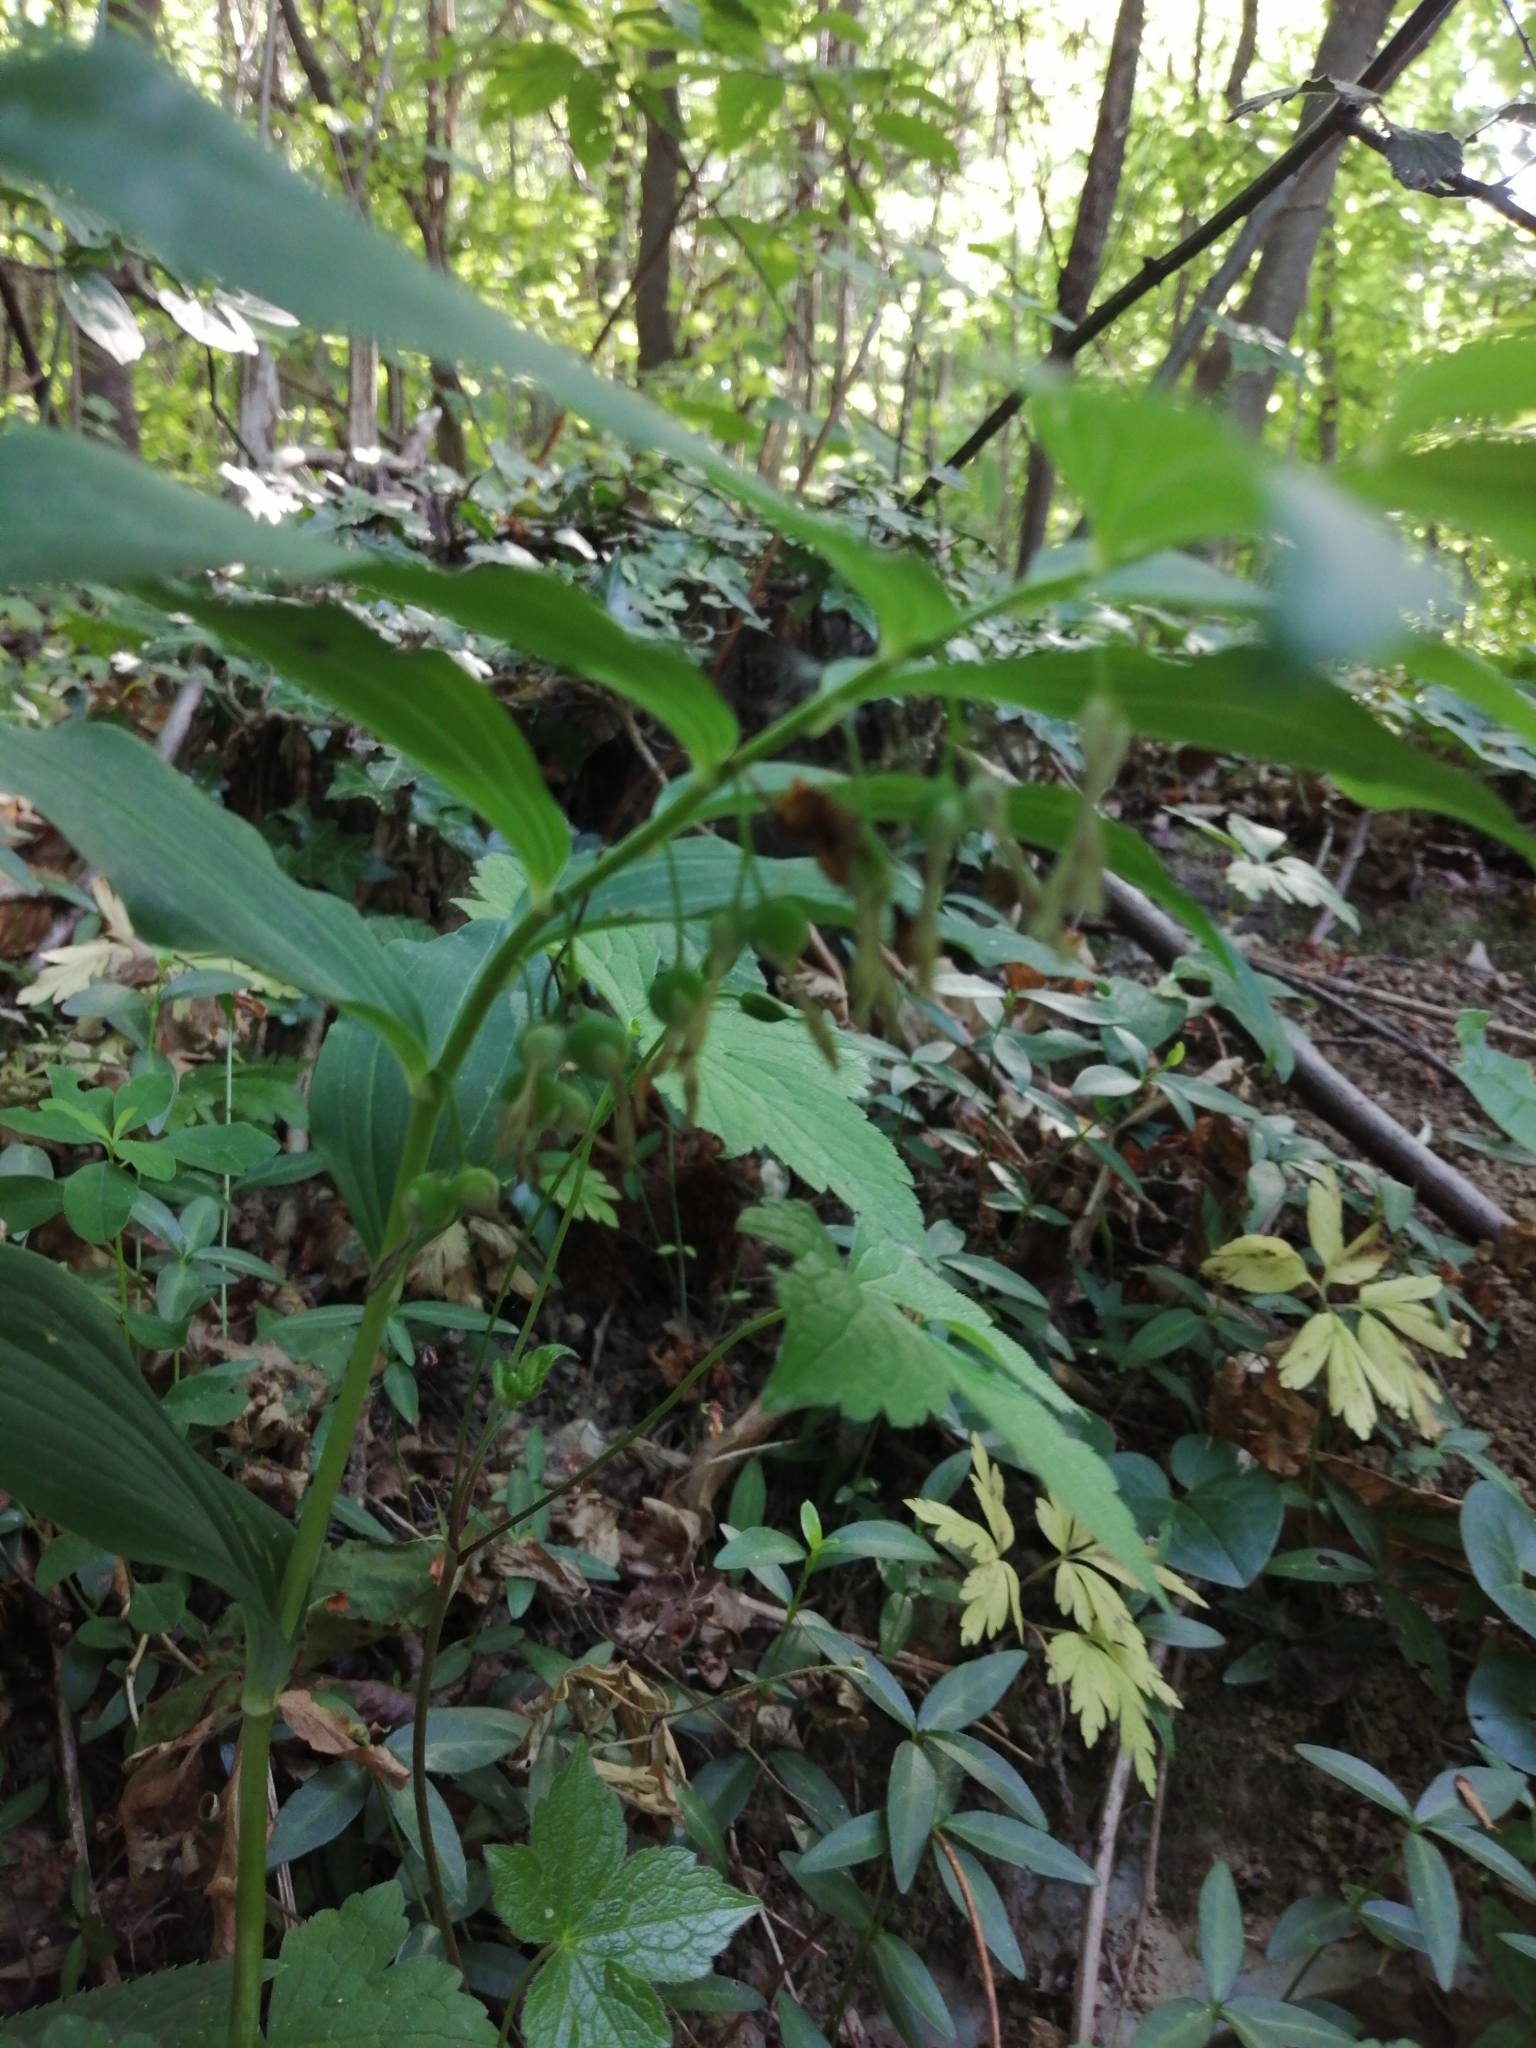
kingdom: Plantae
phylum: Tracheophyta
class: Liliopsida
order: Asparagales
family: Asparagaceae
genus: Polygonatum
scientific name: Polygonatum multiflorum
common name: Solomon's-seal
